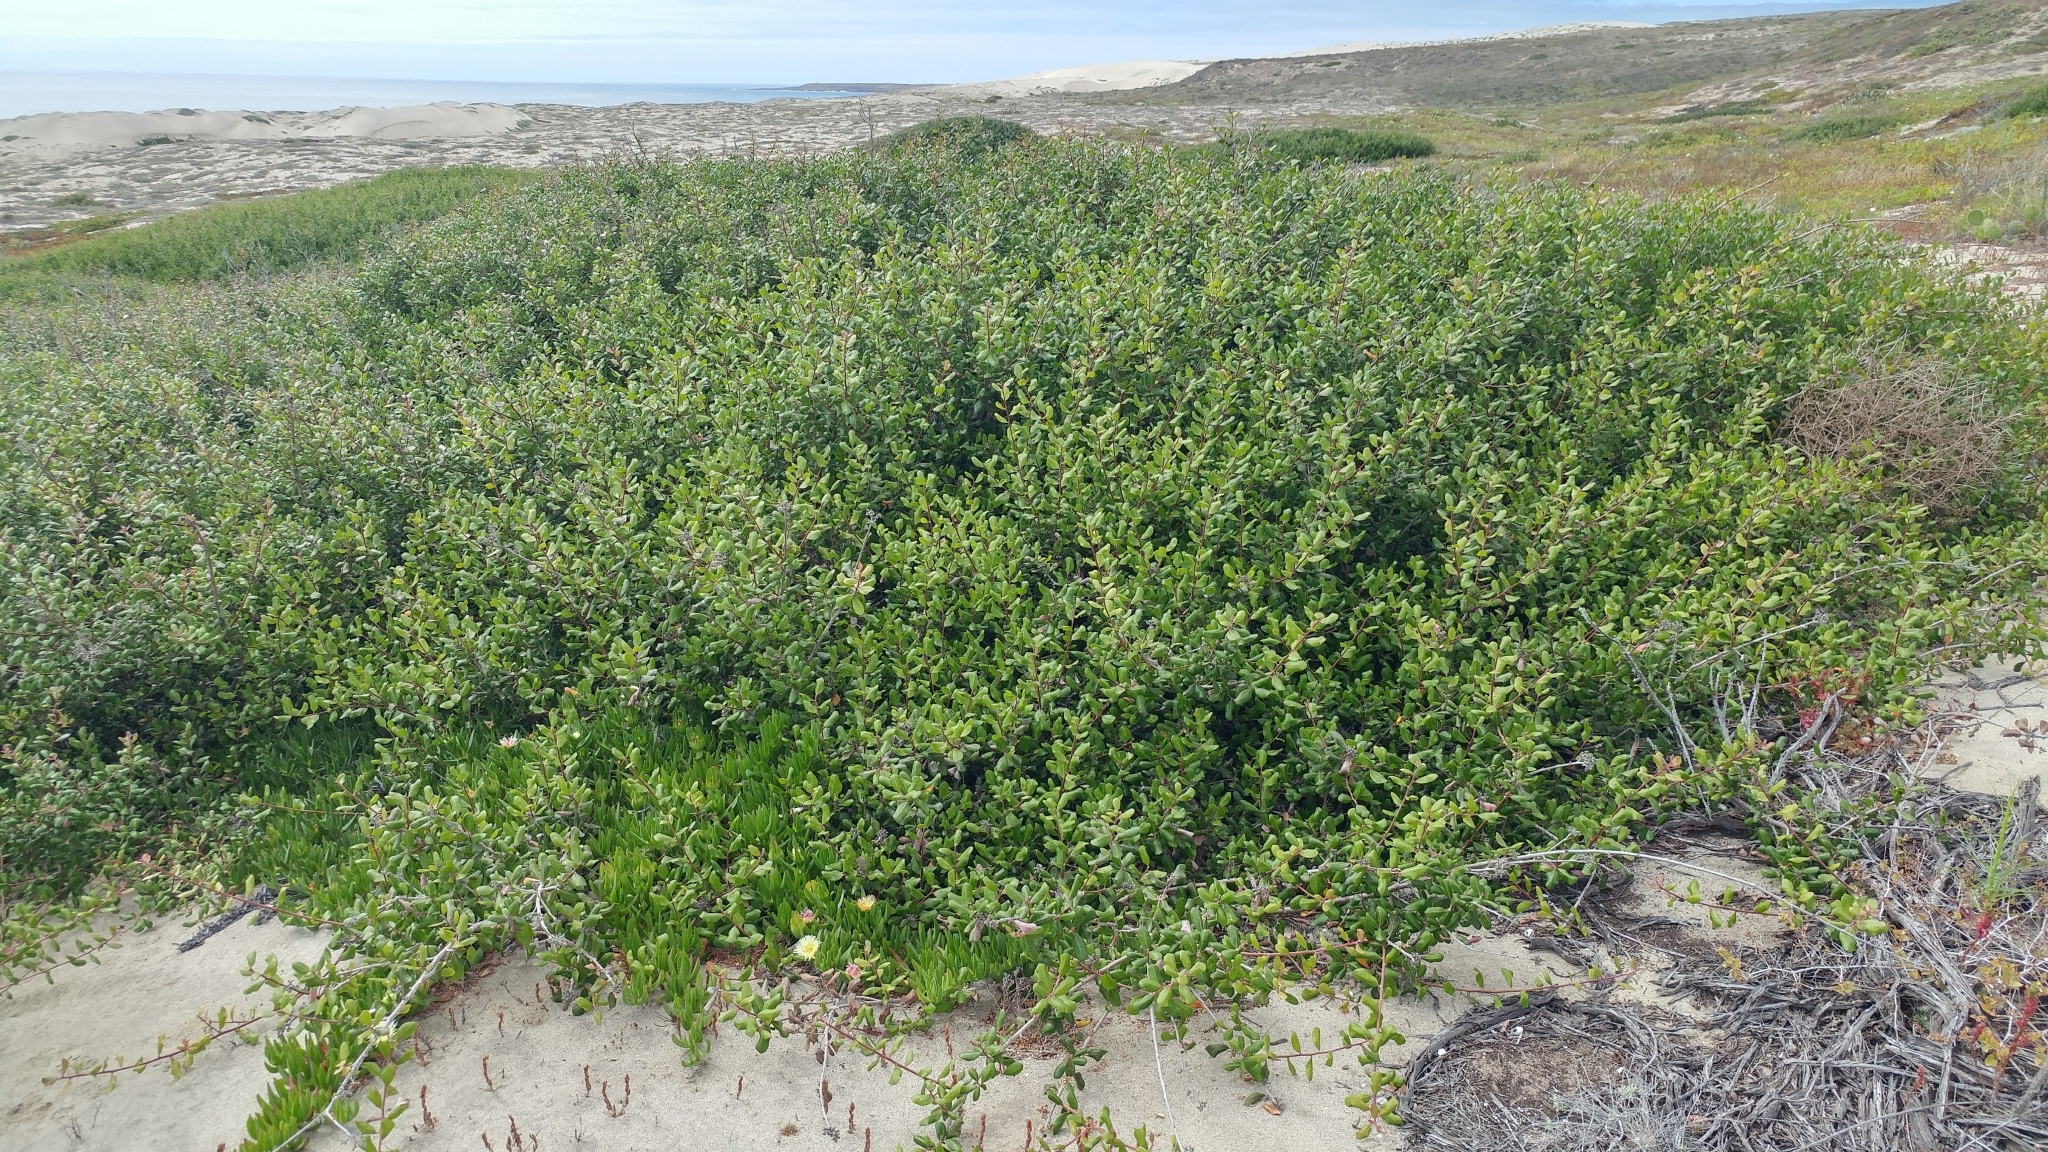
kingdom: Plantae
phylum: Tracheophyta
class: Magnoliopsida
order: Sapindales
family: Anacardiaceae
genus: Rhus
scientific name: Rhus integrifolia
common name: Lemonade sumac
